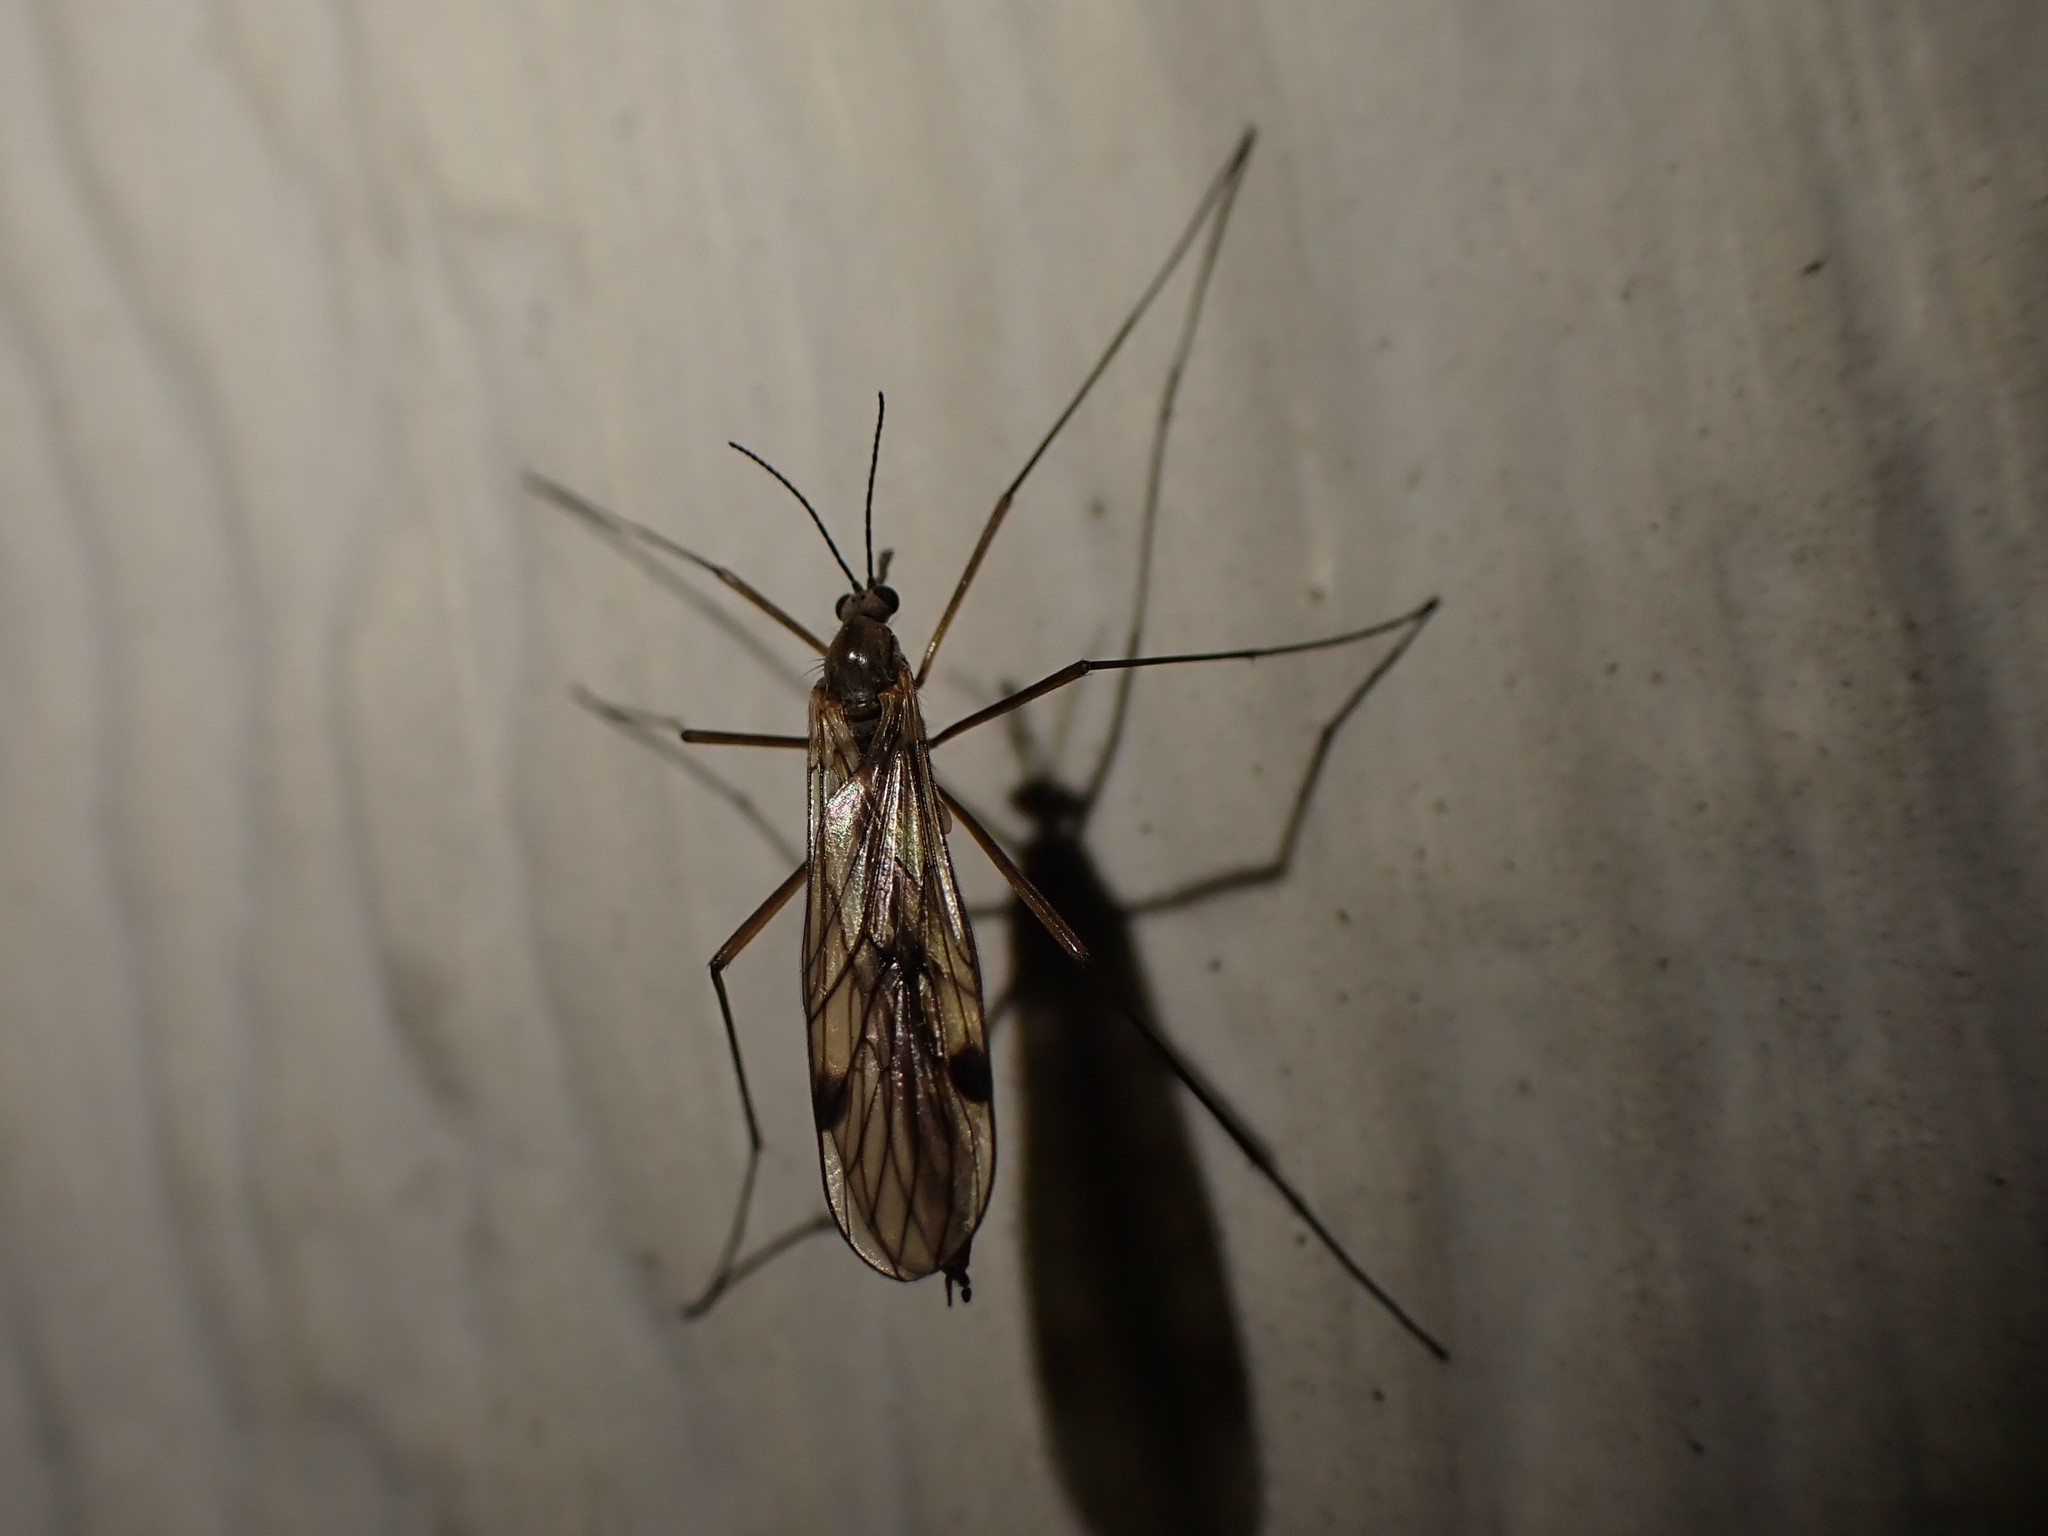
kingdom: Animalia
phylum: Arthropoda
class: Insecta
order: Diptera
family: Pachyneuridae
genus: Cramptonomyia
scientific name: Cramptonomyia spenceri
